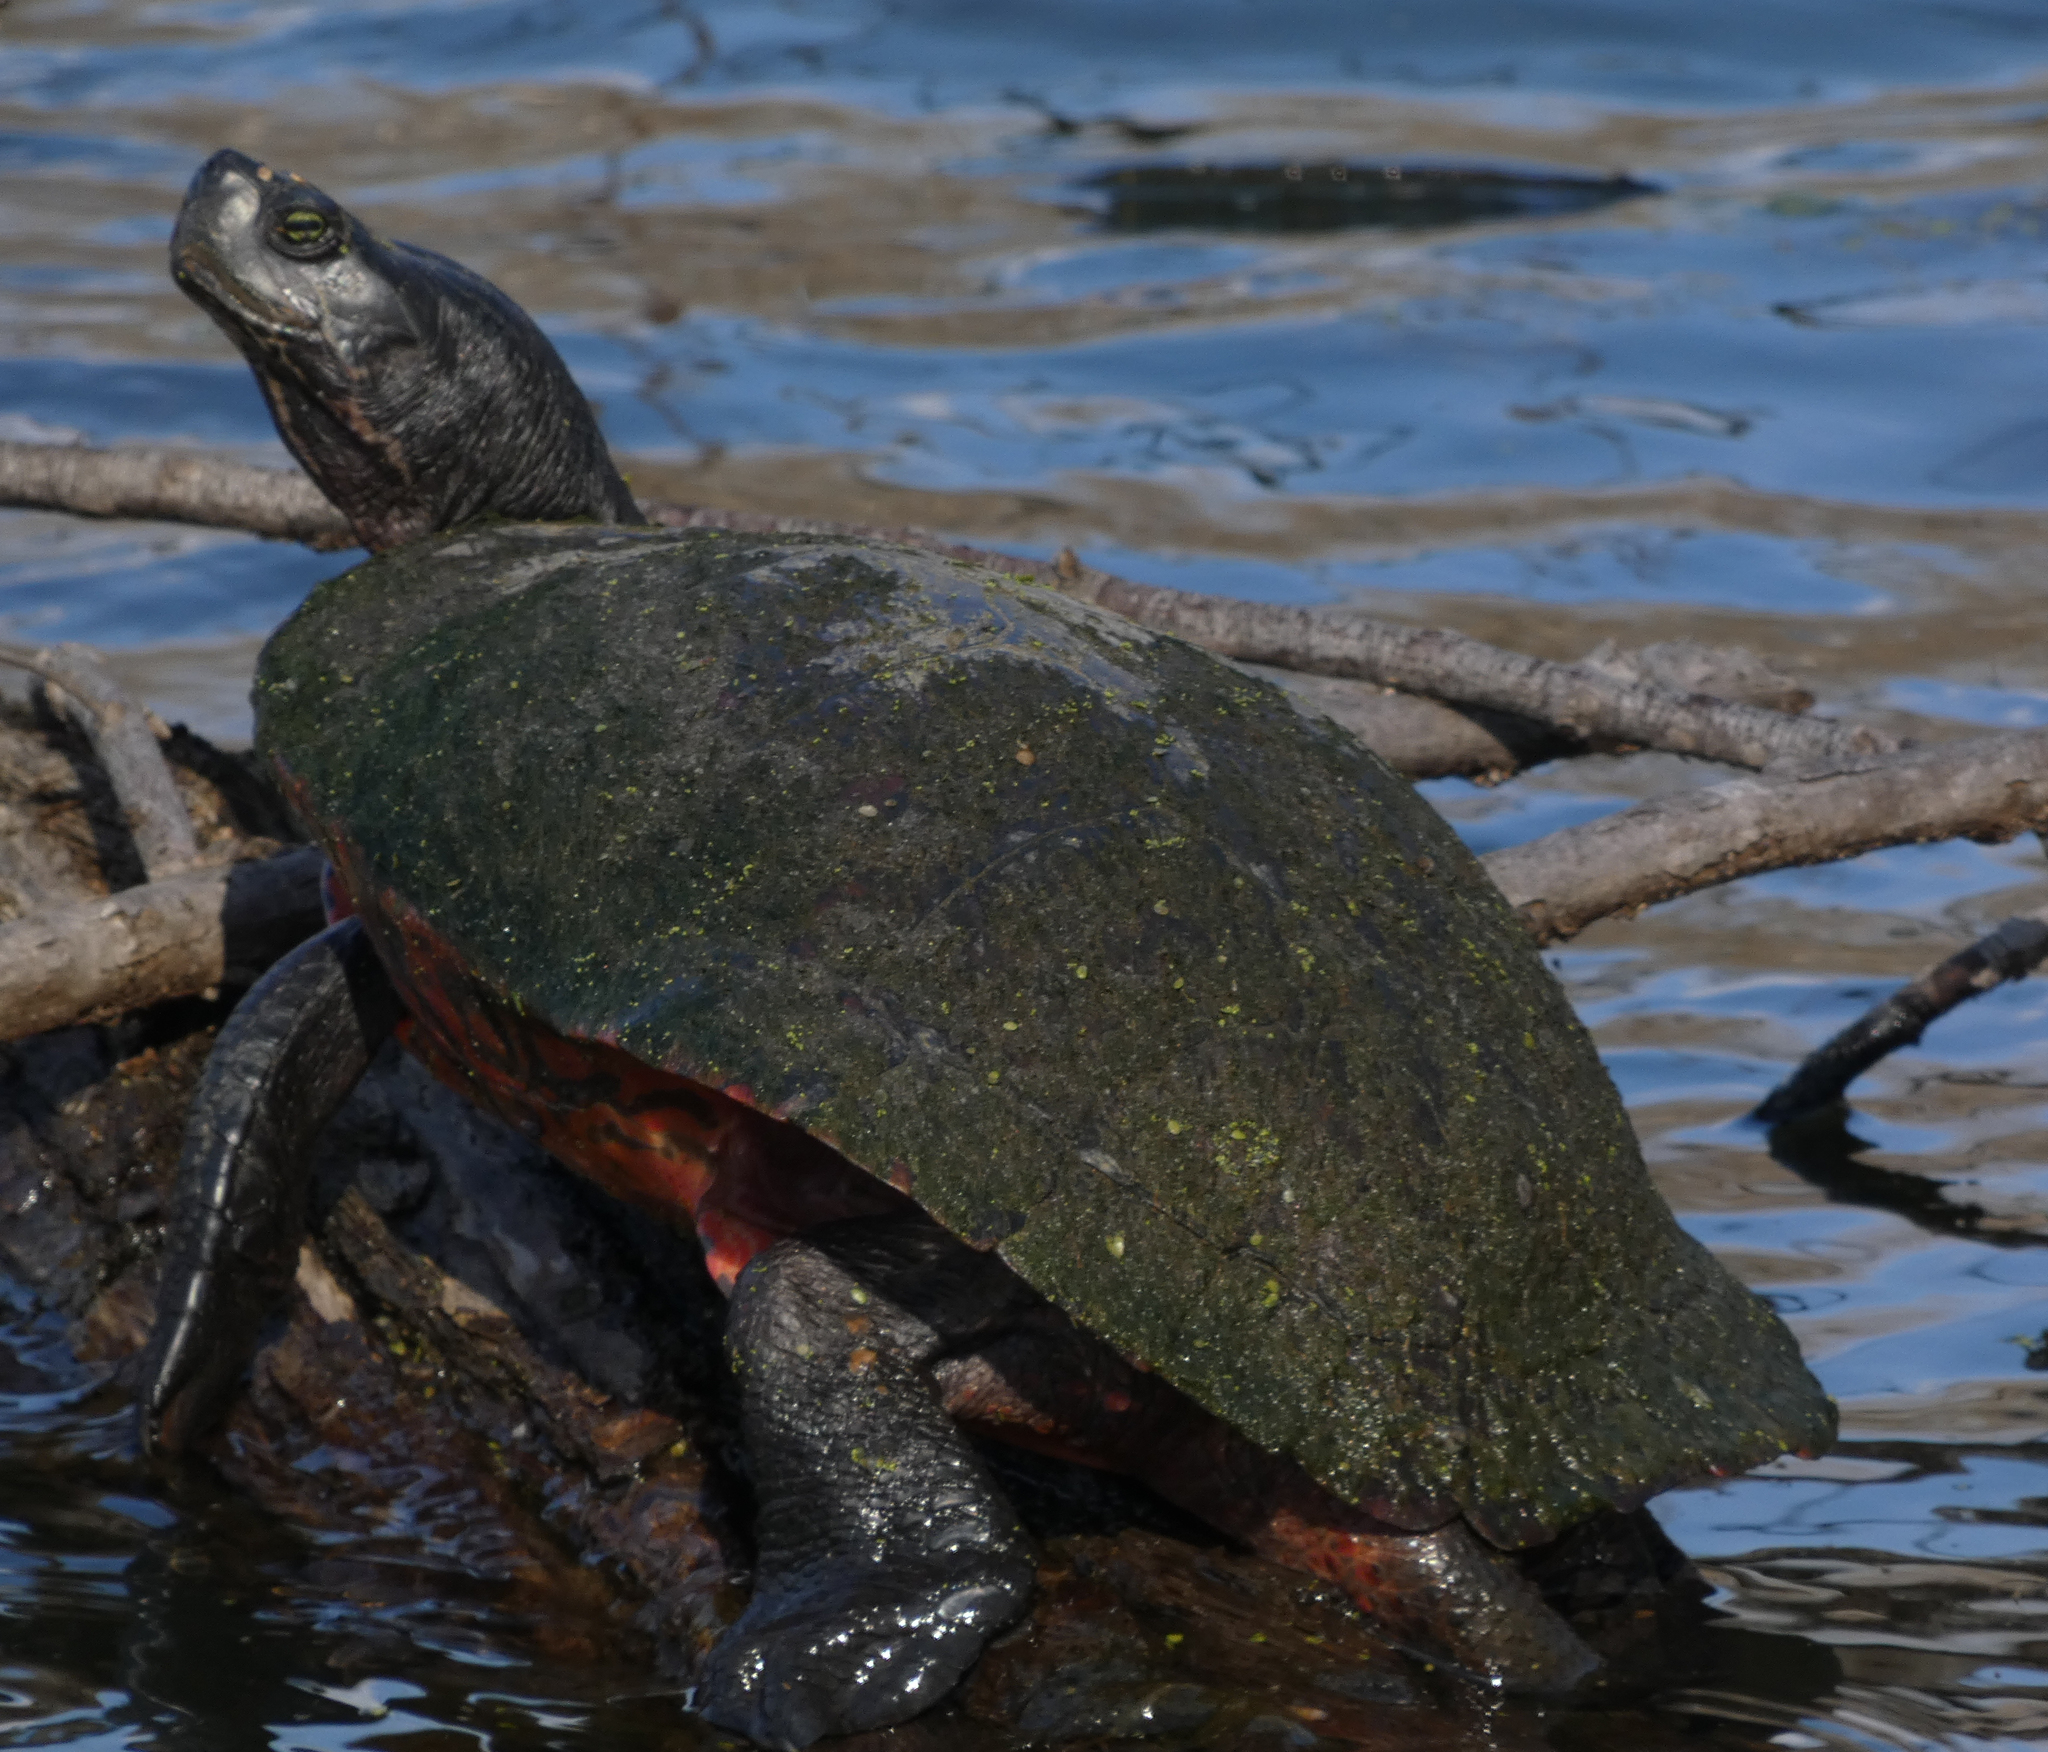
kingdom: Animalia
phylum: Chordata
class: Testudines
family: Emydidae
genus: Pseudemys
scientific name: Pseudemys rubriventris
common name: American red-bellied turtle
